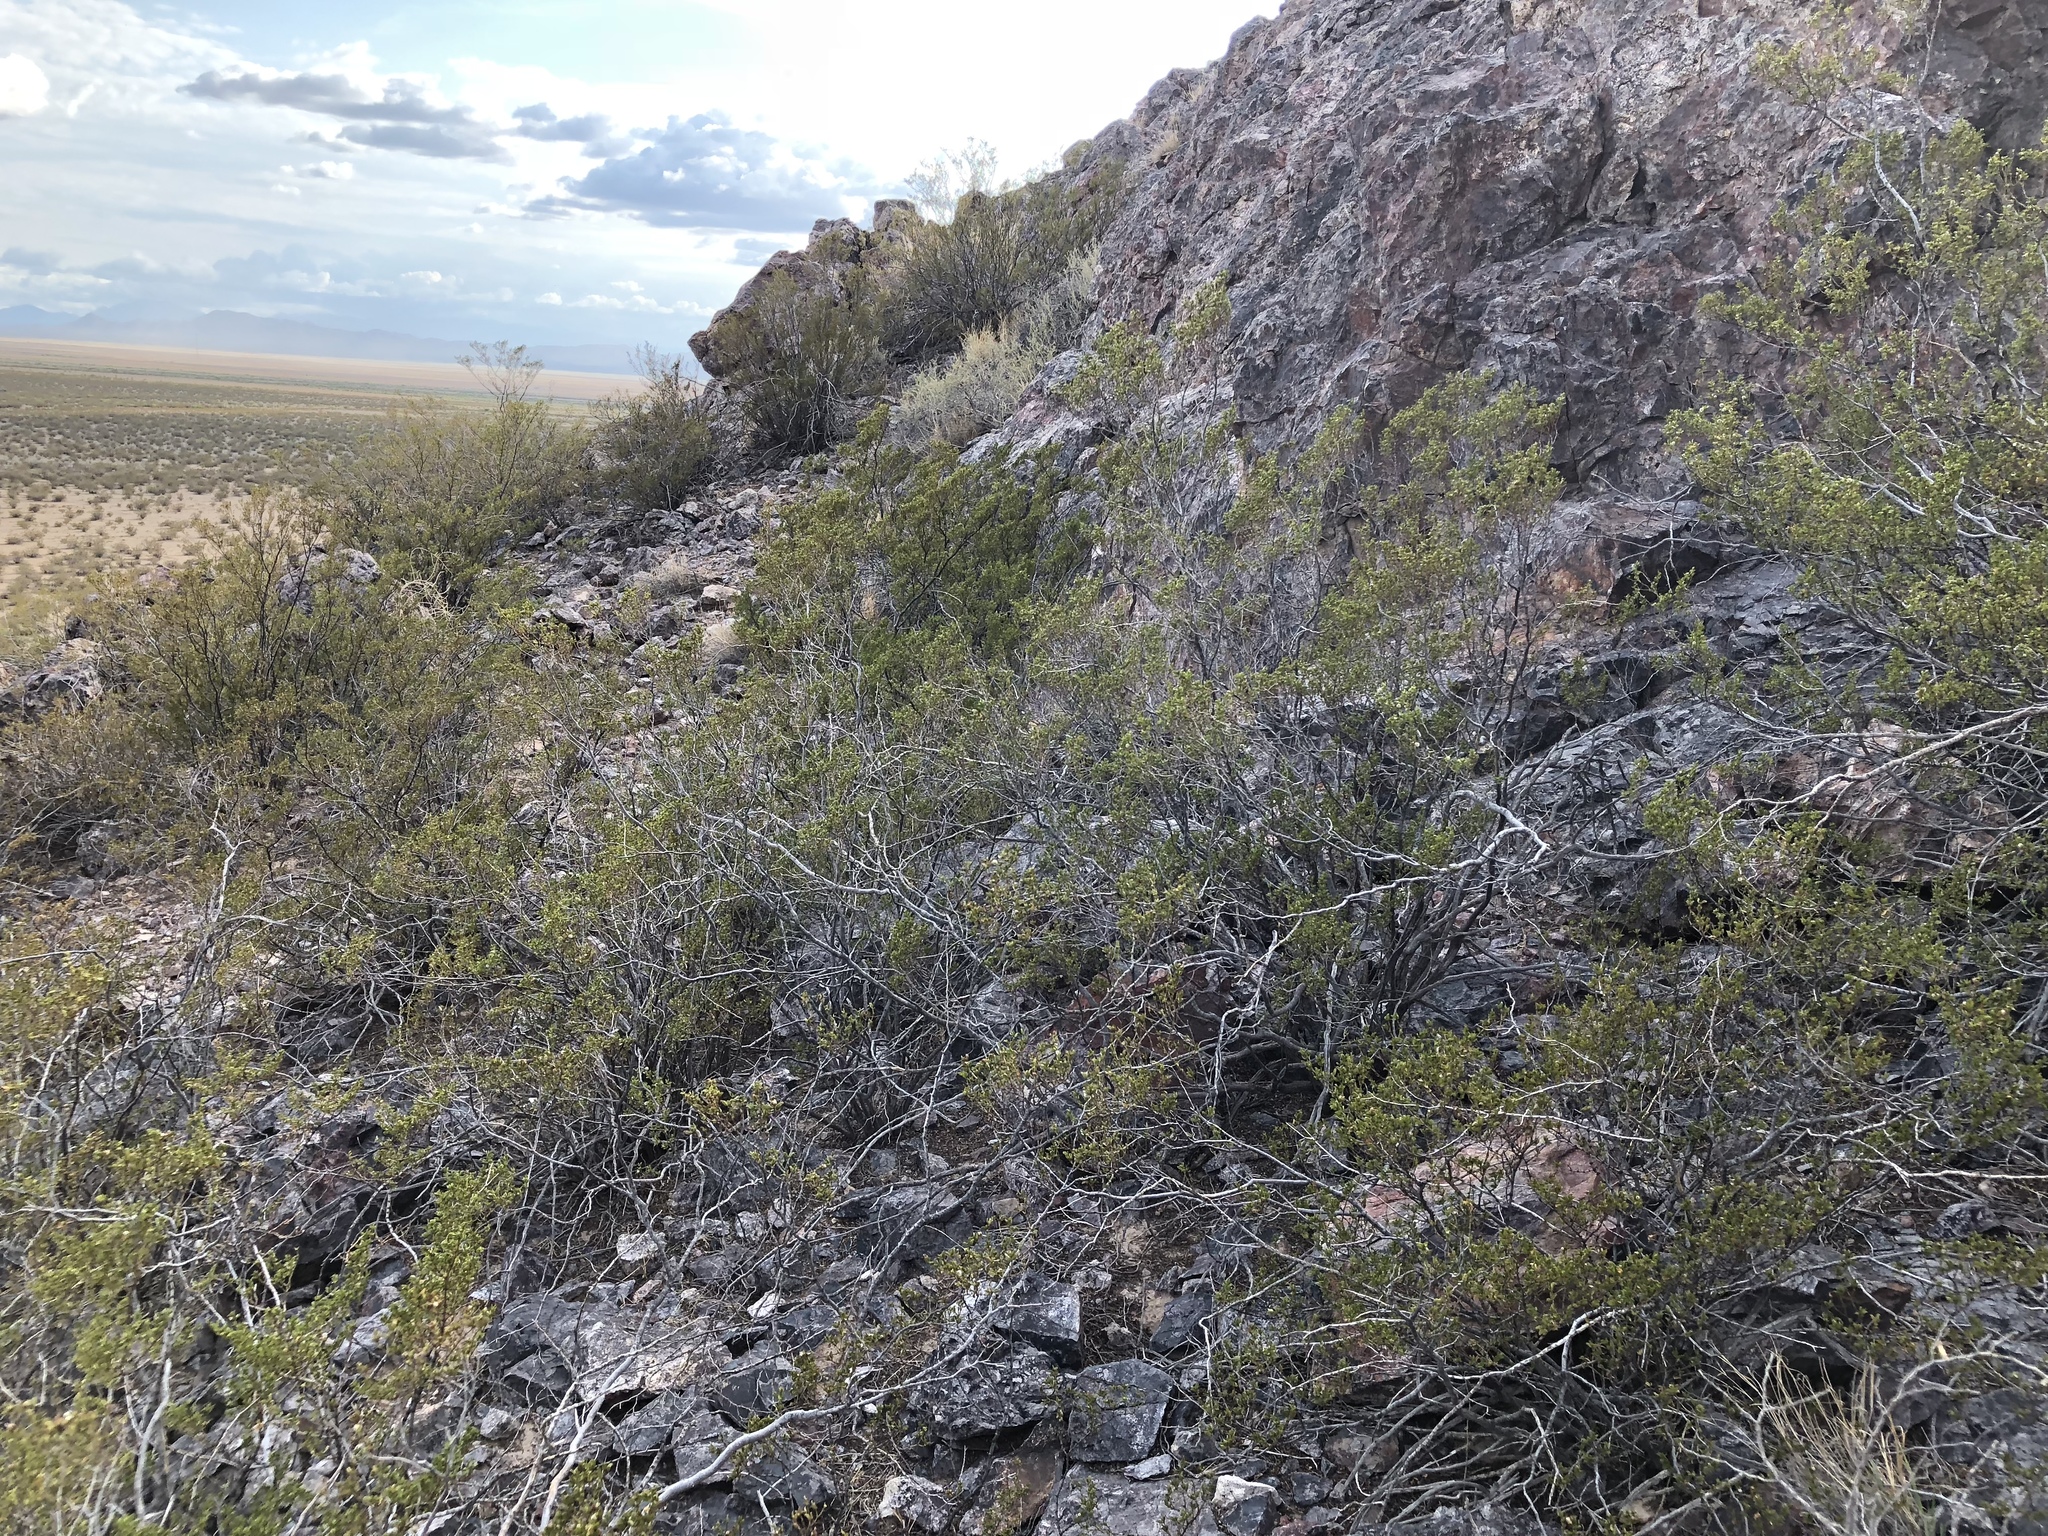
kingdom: Plantae
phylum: Tracheophyta
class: Magnoliopsida
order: Zygophyllales
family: Zygophyllaceae
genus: Larrea
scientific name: Larrea tridentata
